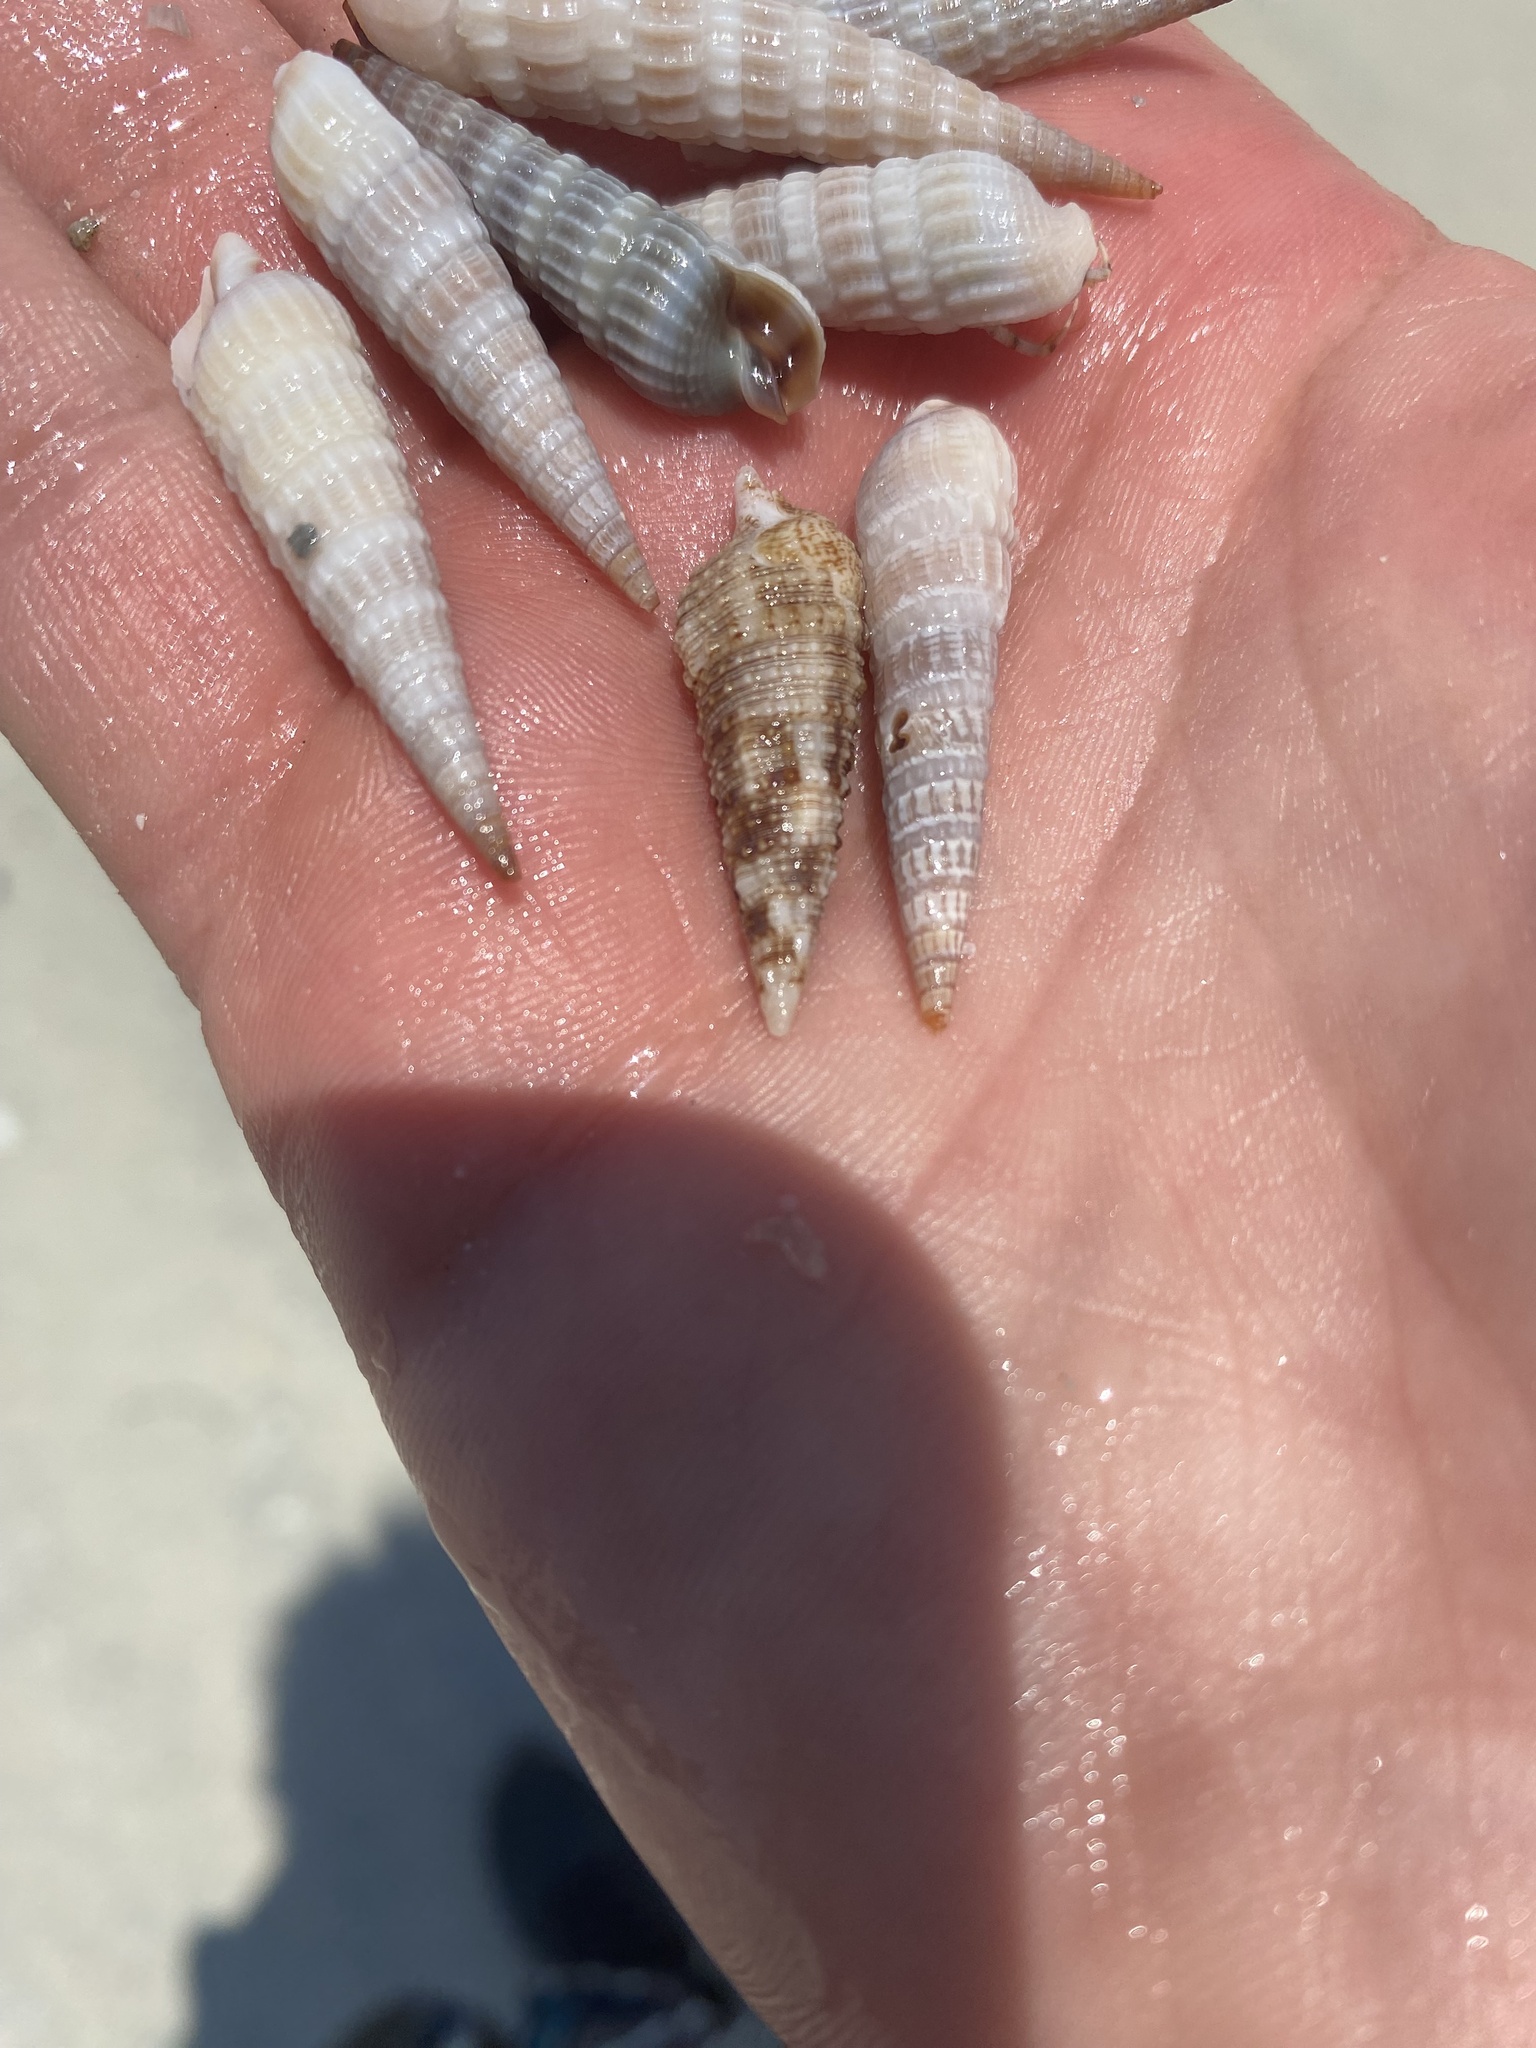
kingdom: Animalia
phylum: Mollusca
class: Gastropoda
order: Neogastropoda
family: Terebridae
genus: Neoterebra
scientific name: Neoterebra dislocata
